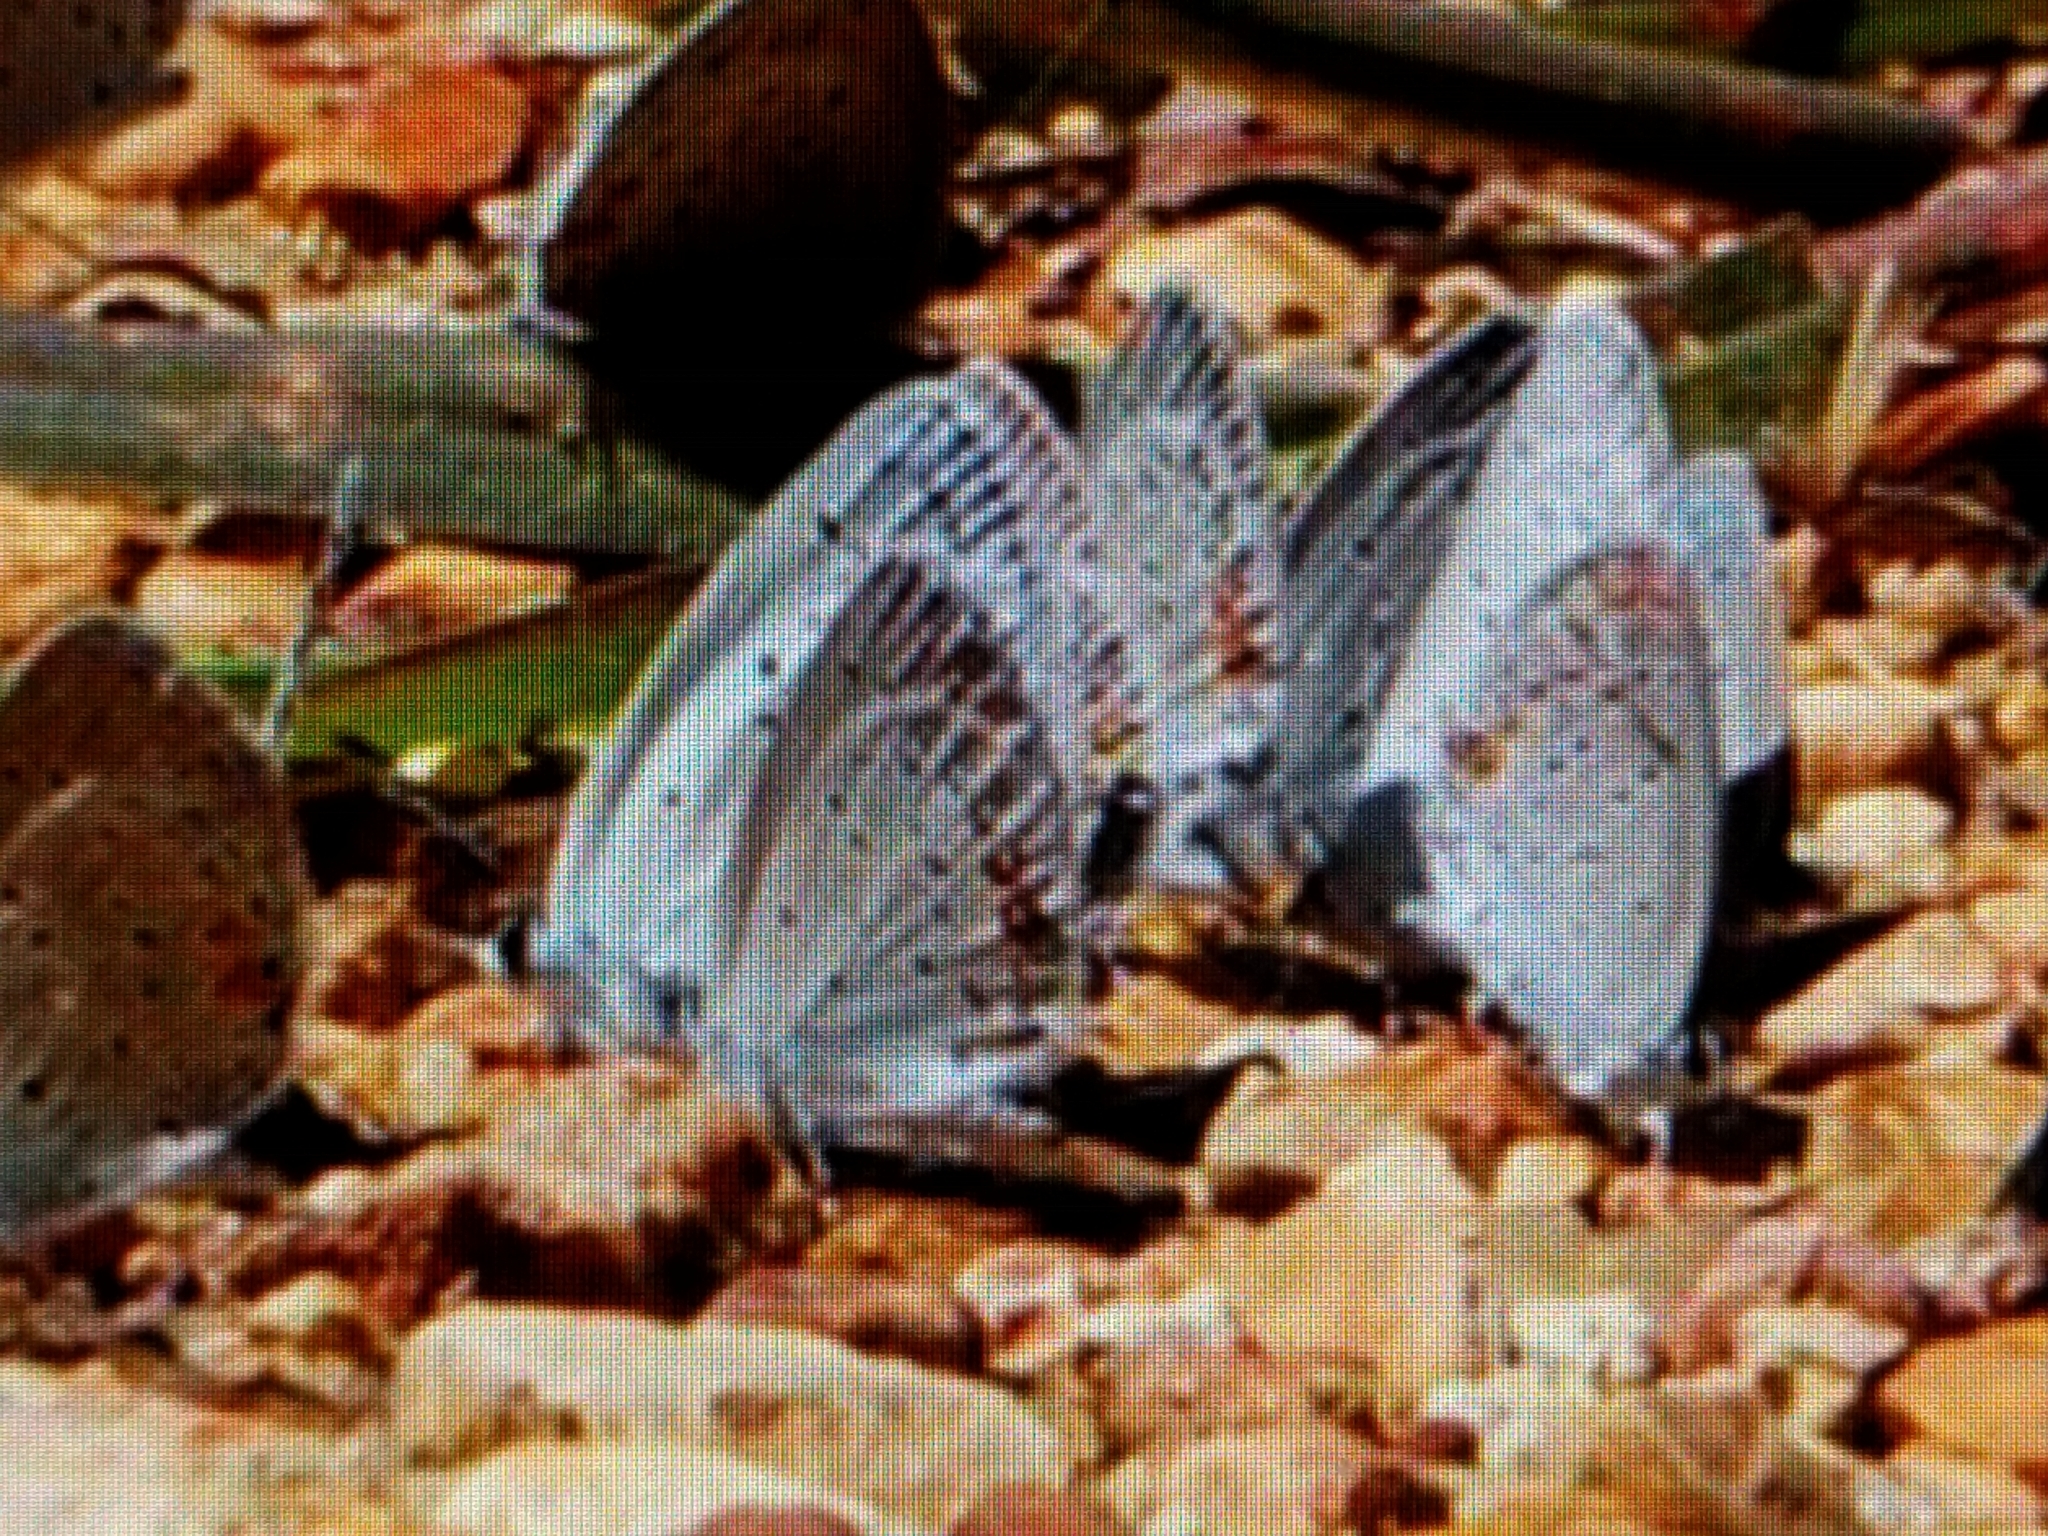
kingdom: Animalia
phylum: Arthropoda
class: Insecta
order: Lepidoptera
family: Lycaenidae
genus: Elkalyce
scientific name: Elkalyce comyntas
